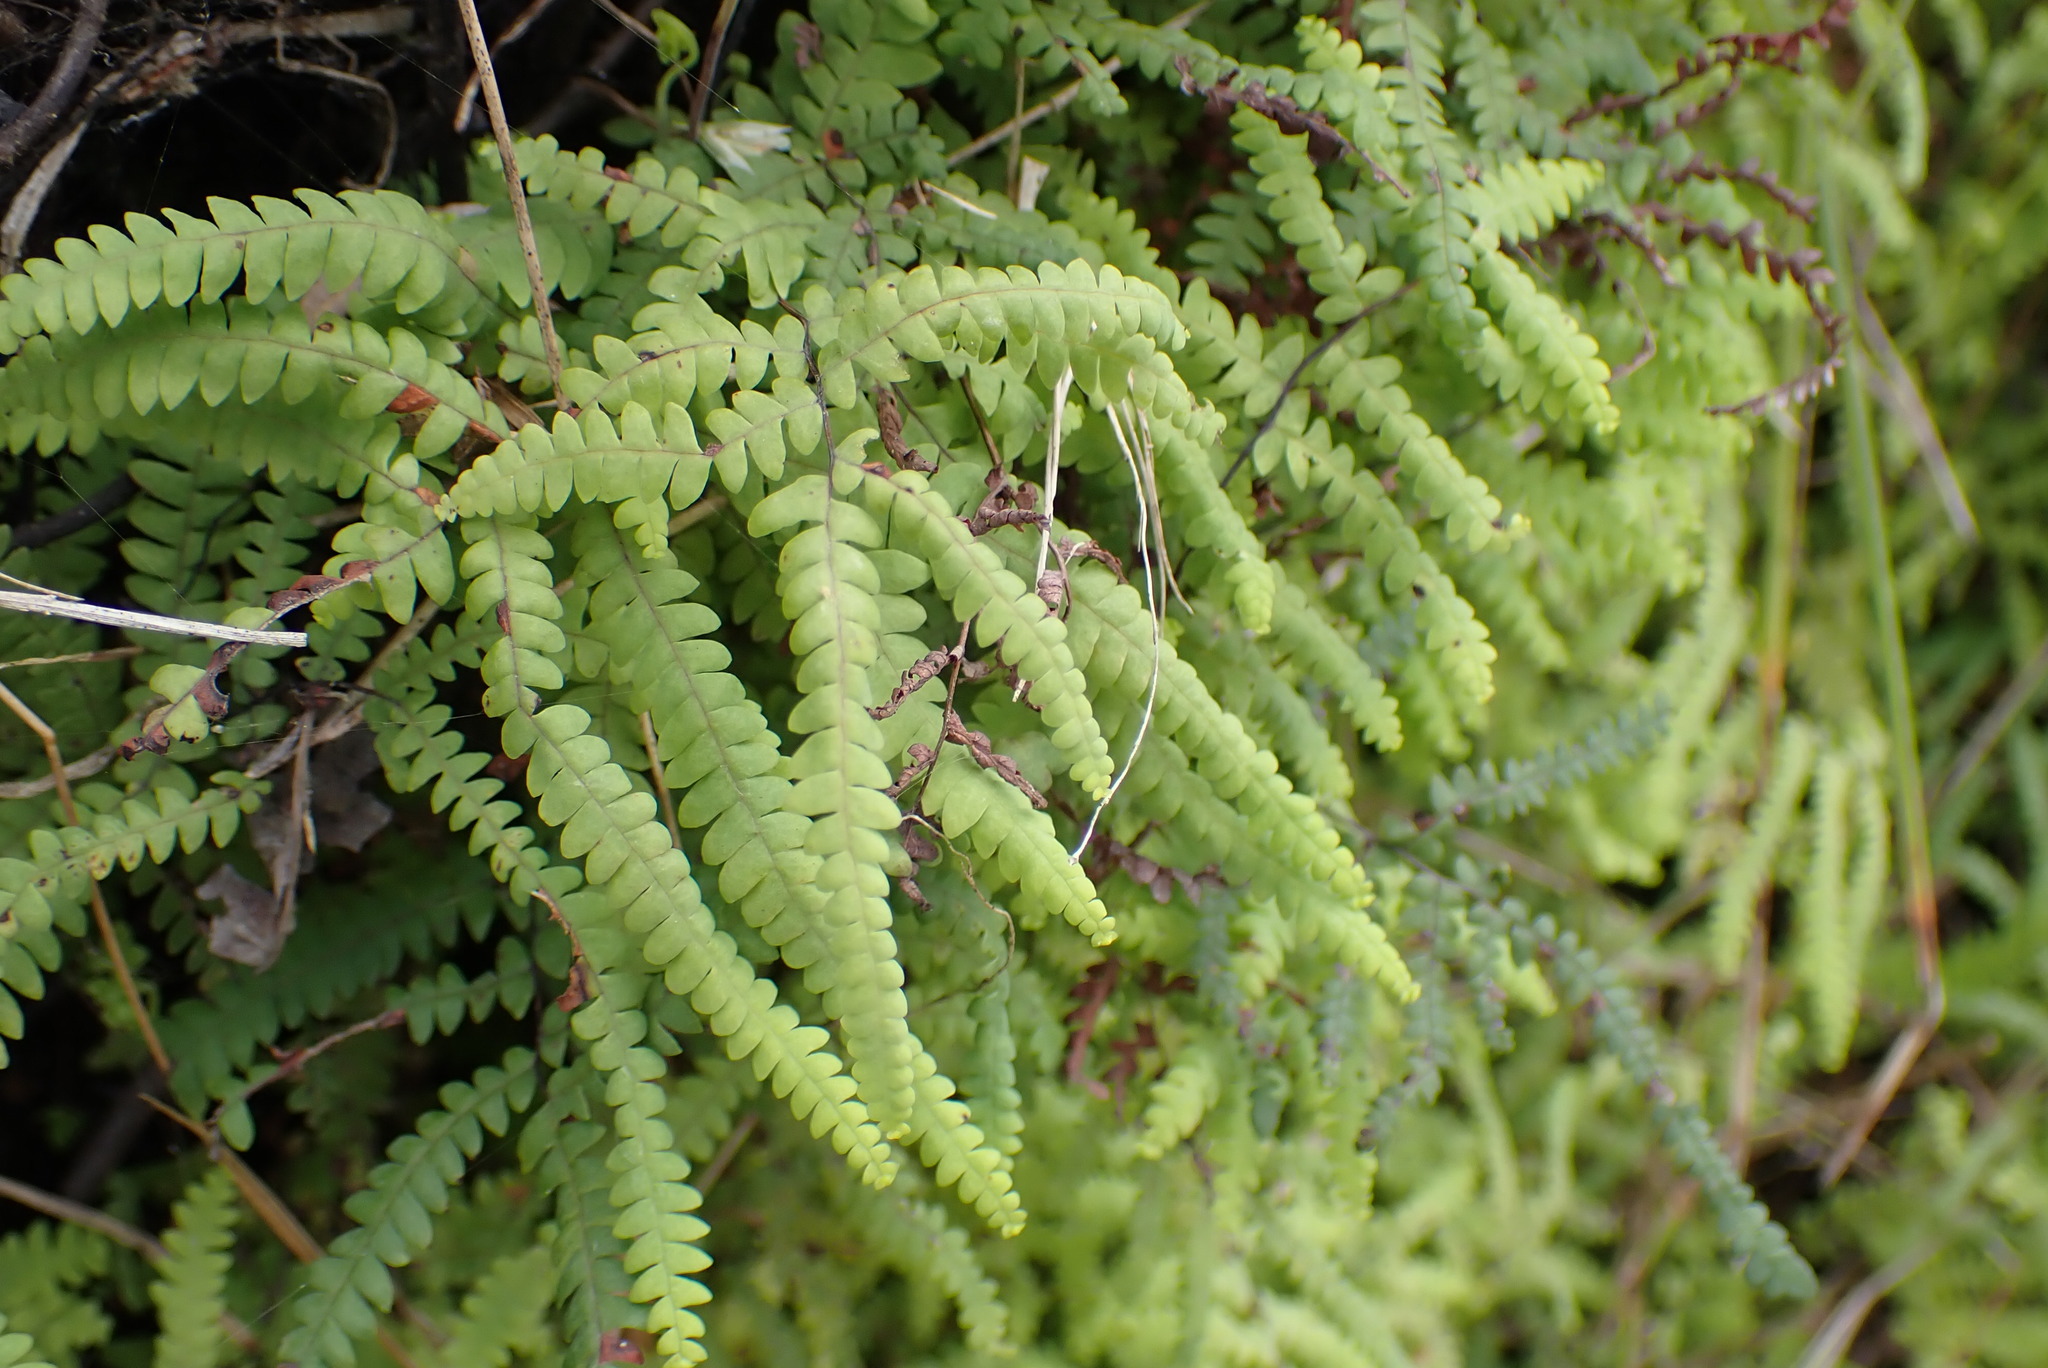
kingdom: Plantae
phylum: Tracheophyta
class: Polypodiopsida
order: Gleicheniales
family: Gleicheniaceae
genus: Gleichenia
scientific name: Gleichenia polypodioides
